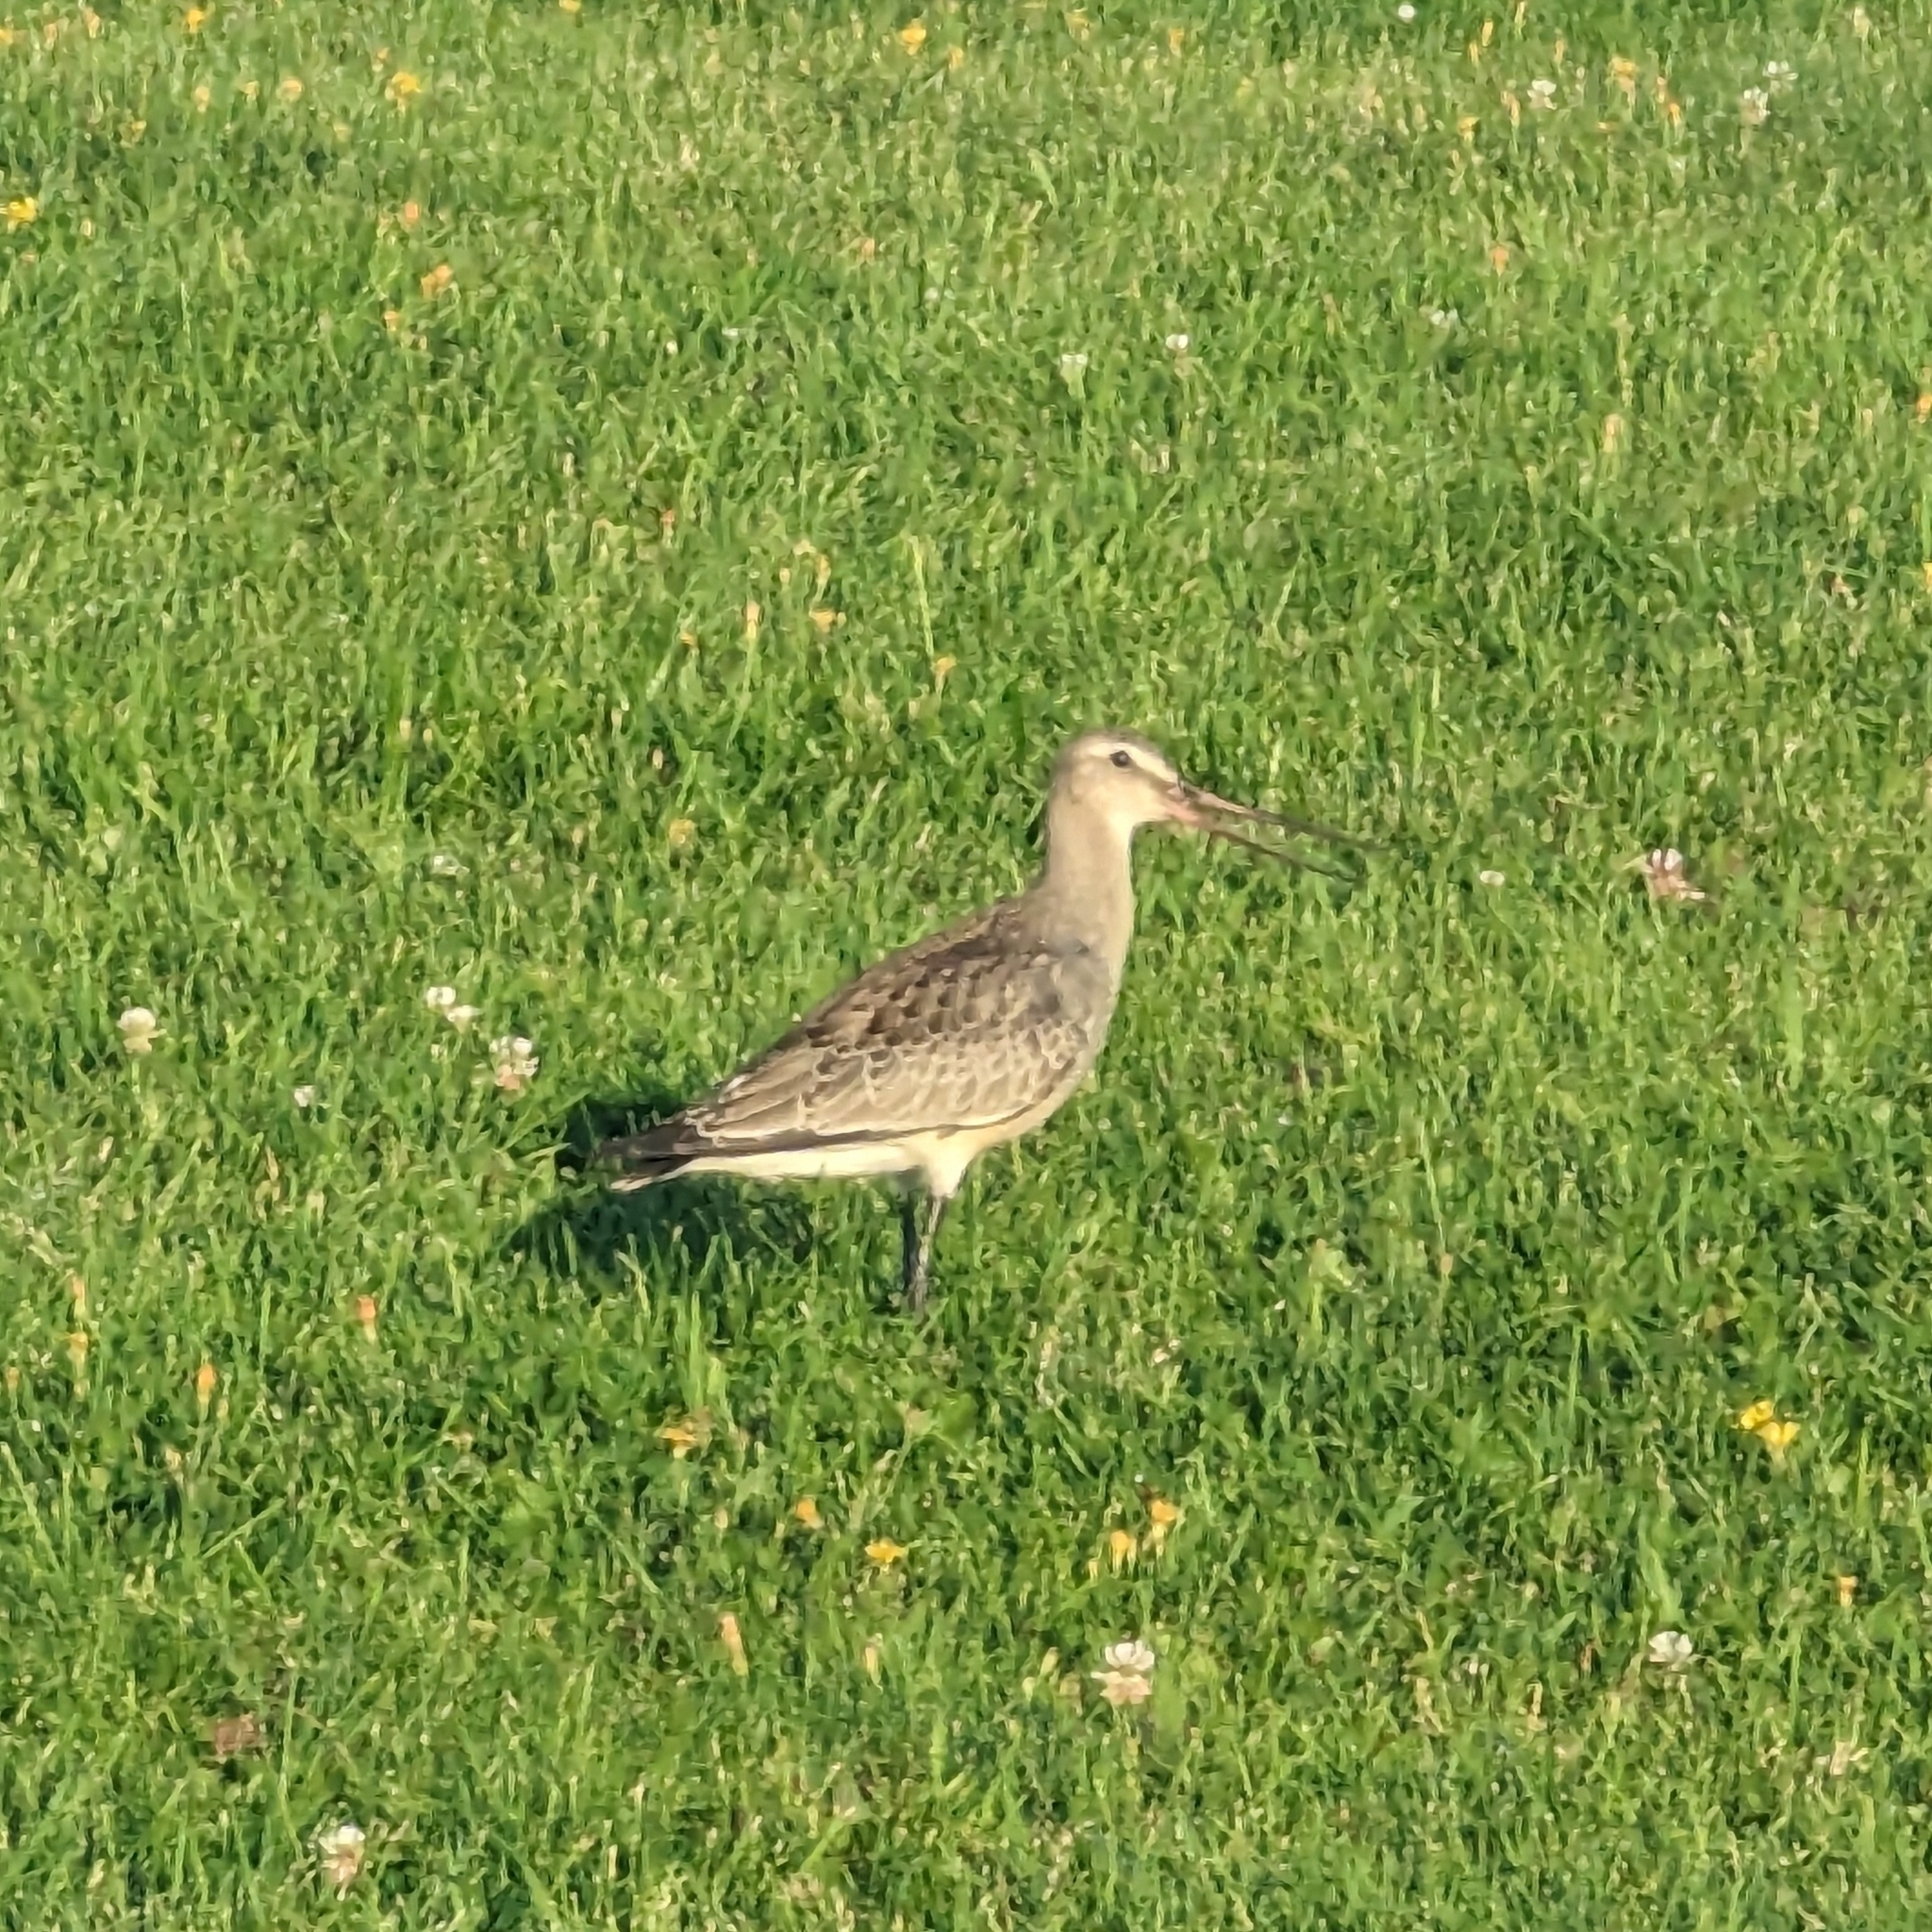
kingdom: Animalia
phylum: Chordata
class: Aves
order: Charadriiformes
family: Scolopacidae
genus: Limosa
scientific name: Limosa haemastica
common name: Hudsonian godwit
